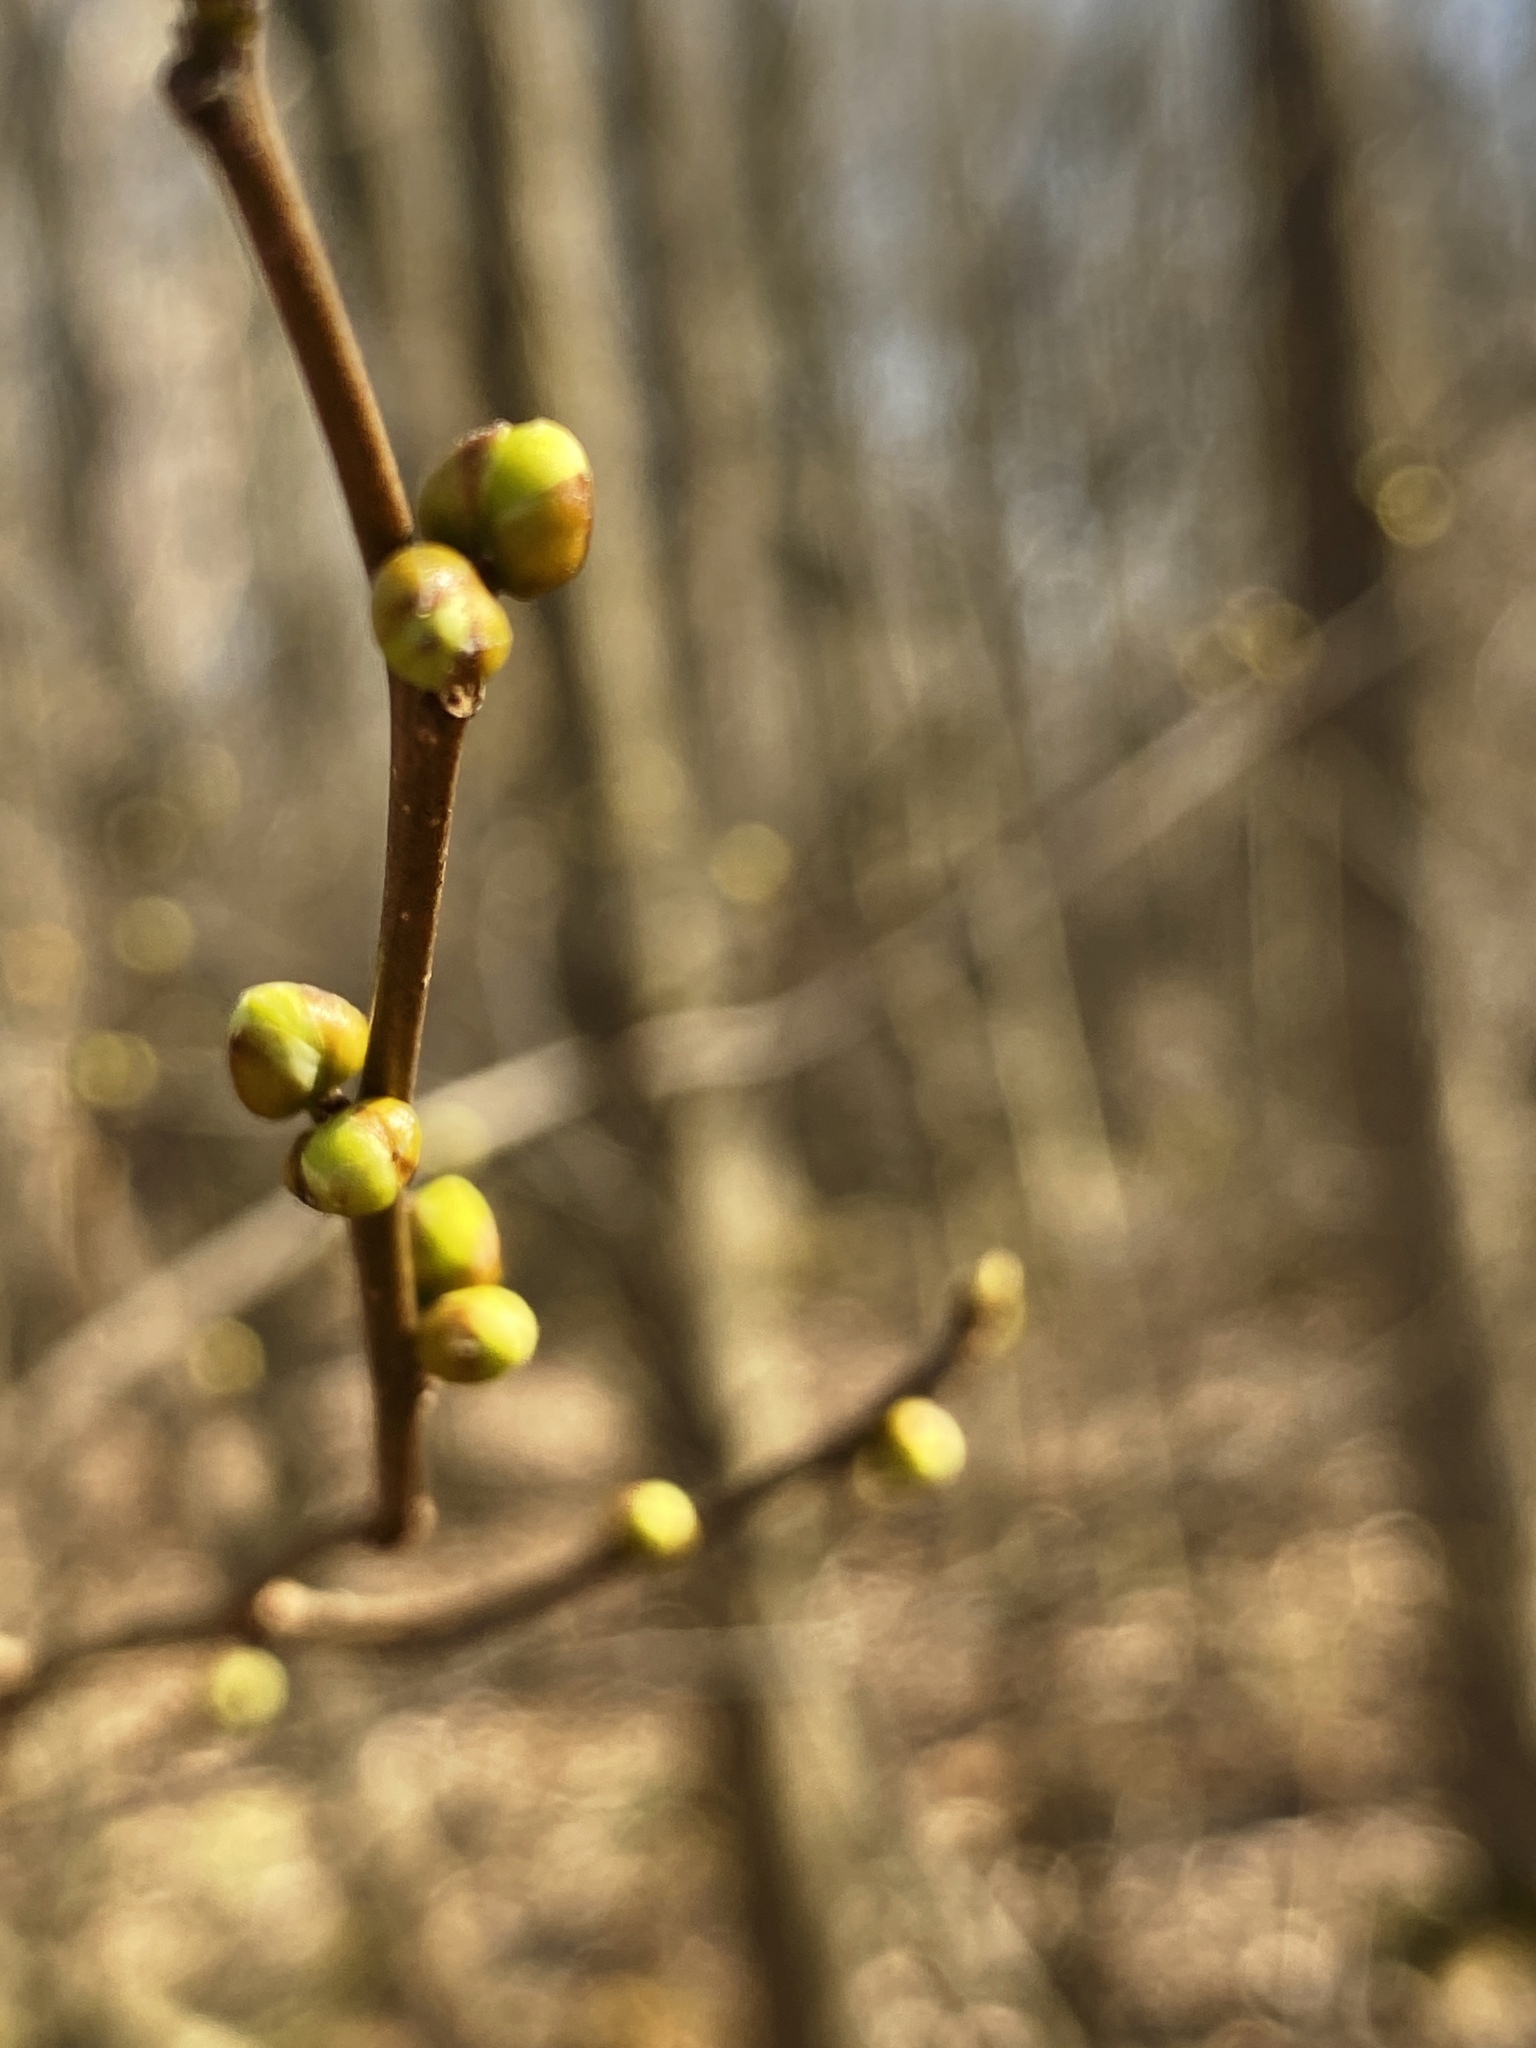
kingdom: Plantae
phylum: Tracheophyta
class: Magnoliopsida
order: Laurales
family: Lauraceae
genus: Lindera
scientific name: Lindera benzoin
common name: Spicebush
